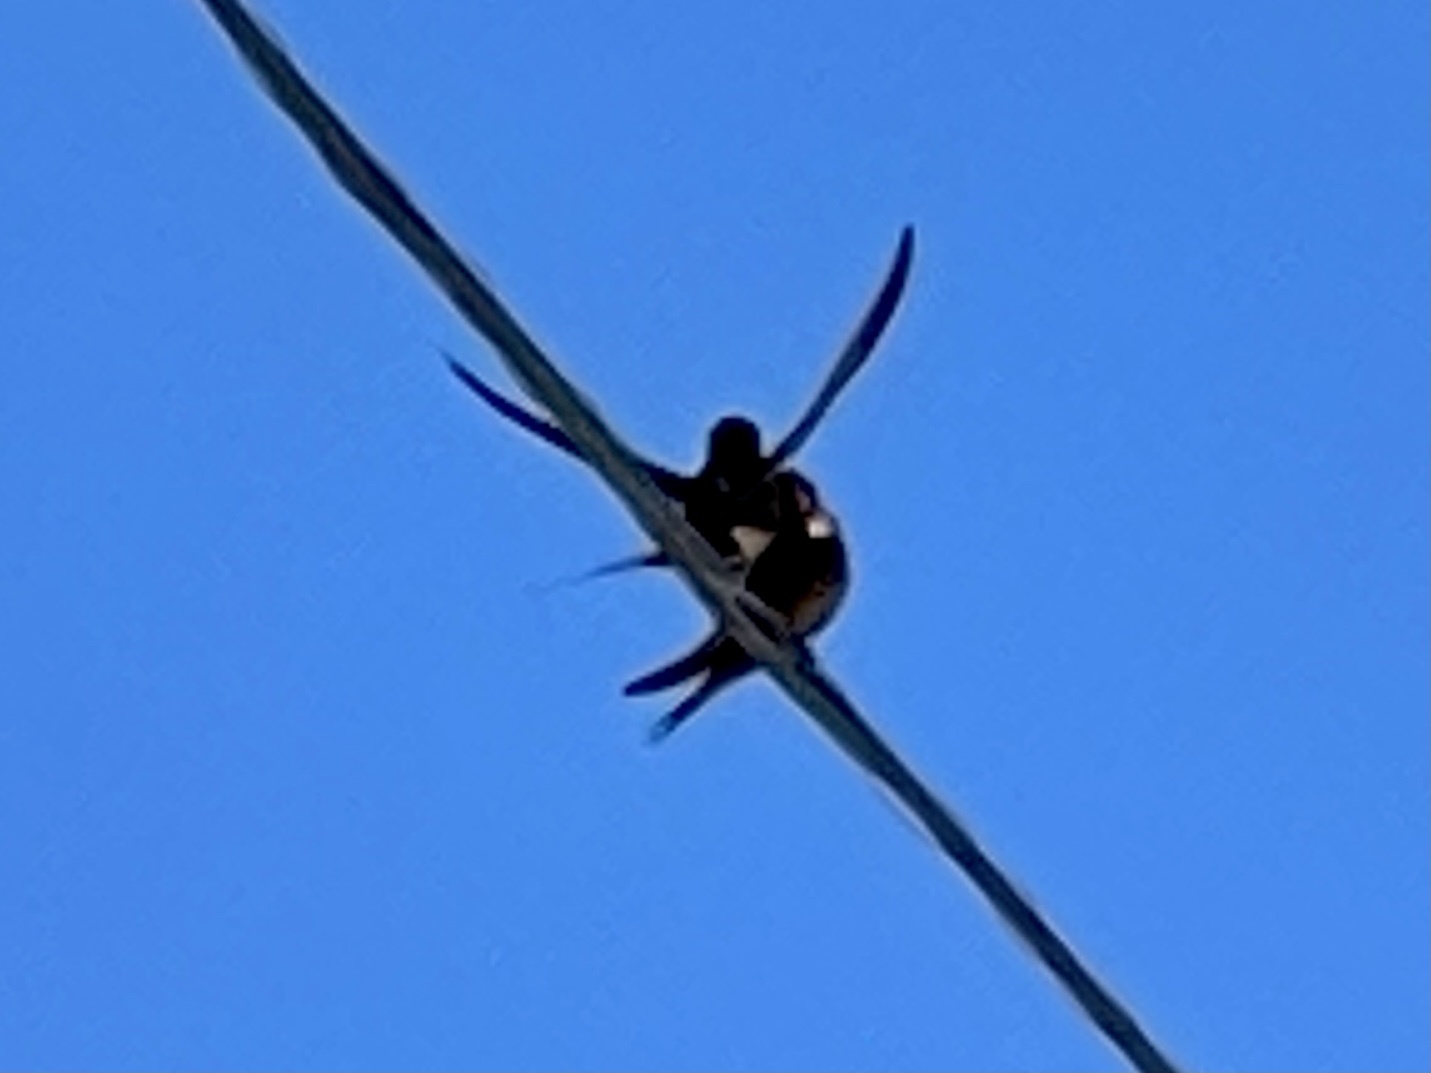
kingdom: Animalia
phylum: Chordata
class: Aves
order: Passeriformes
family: Hirundinidae
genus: Hirundo
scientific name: Hirundo rustica
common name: Barn swallow
